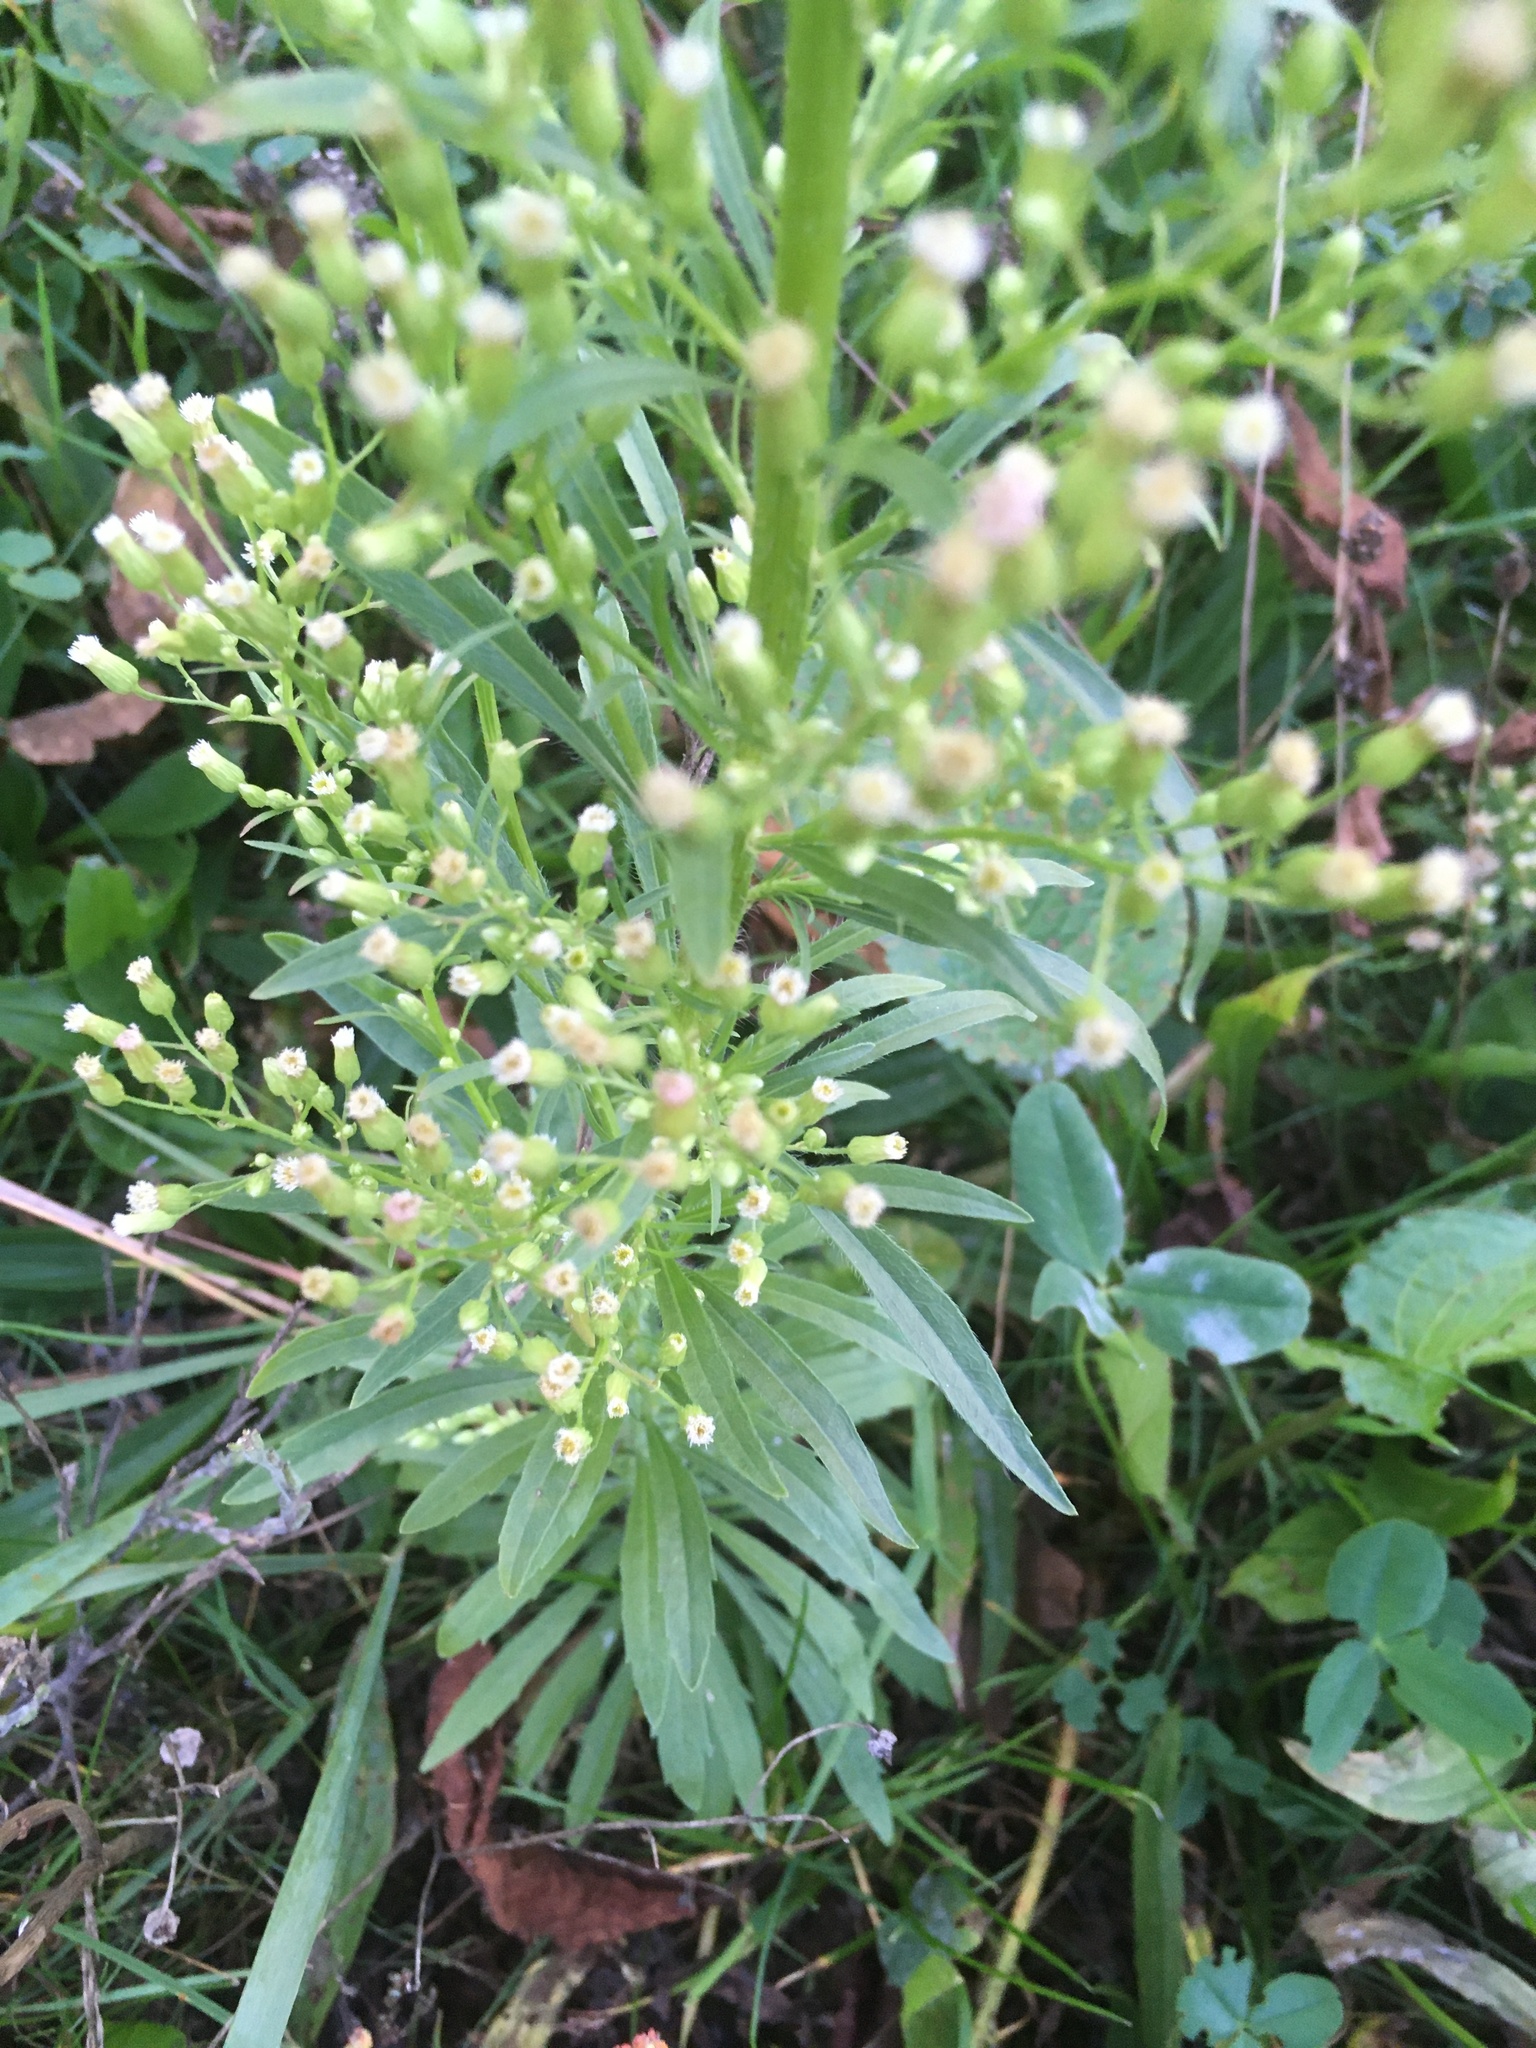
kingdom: Plantae
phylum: Tracheophyta
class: Magnoliopsida
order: Asterales
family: Asteraceae
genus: Erigeron
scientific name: Erigeron canadensis
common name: Canadian fleabane
